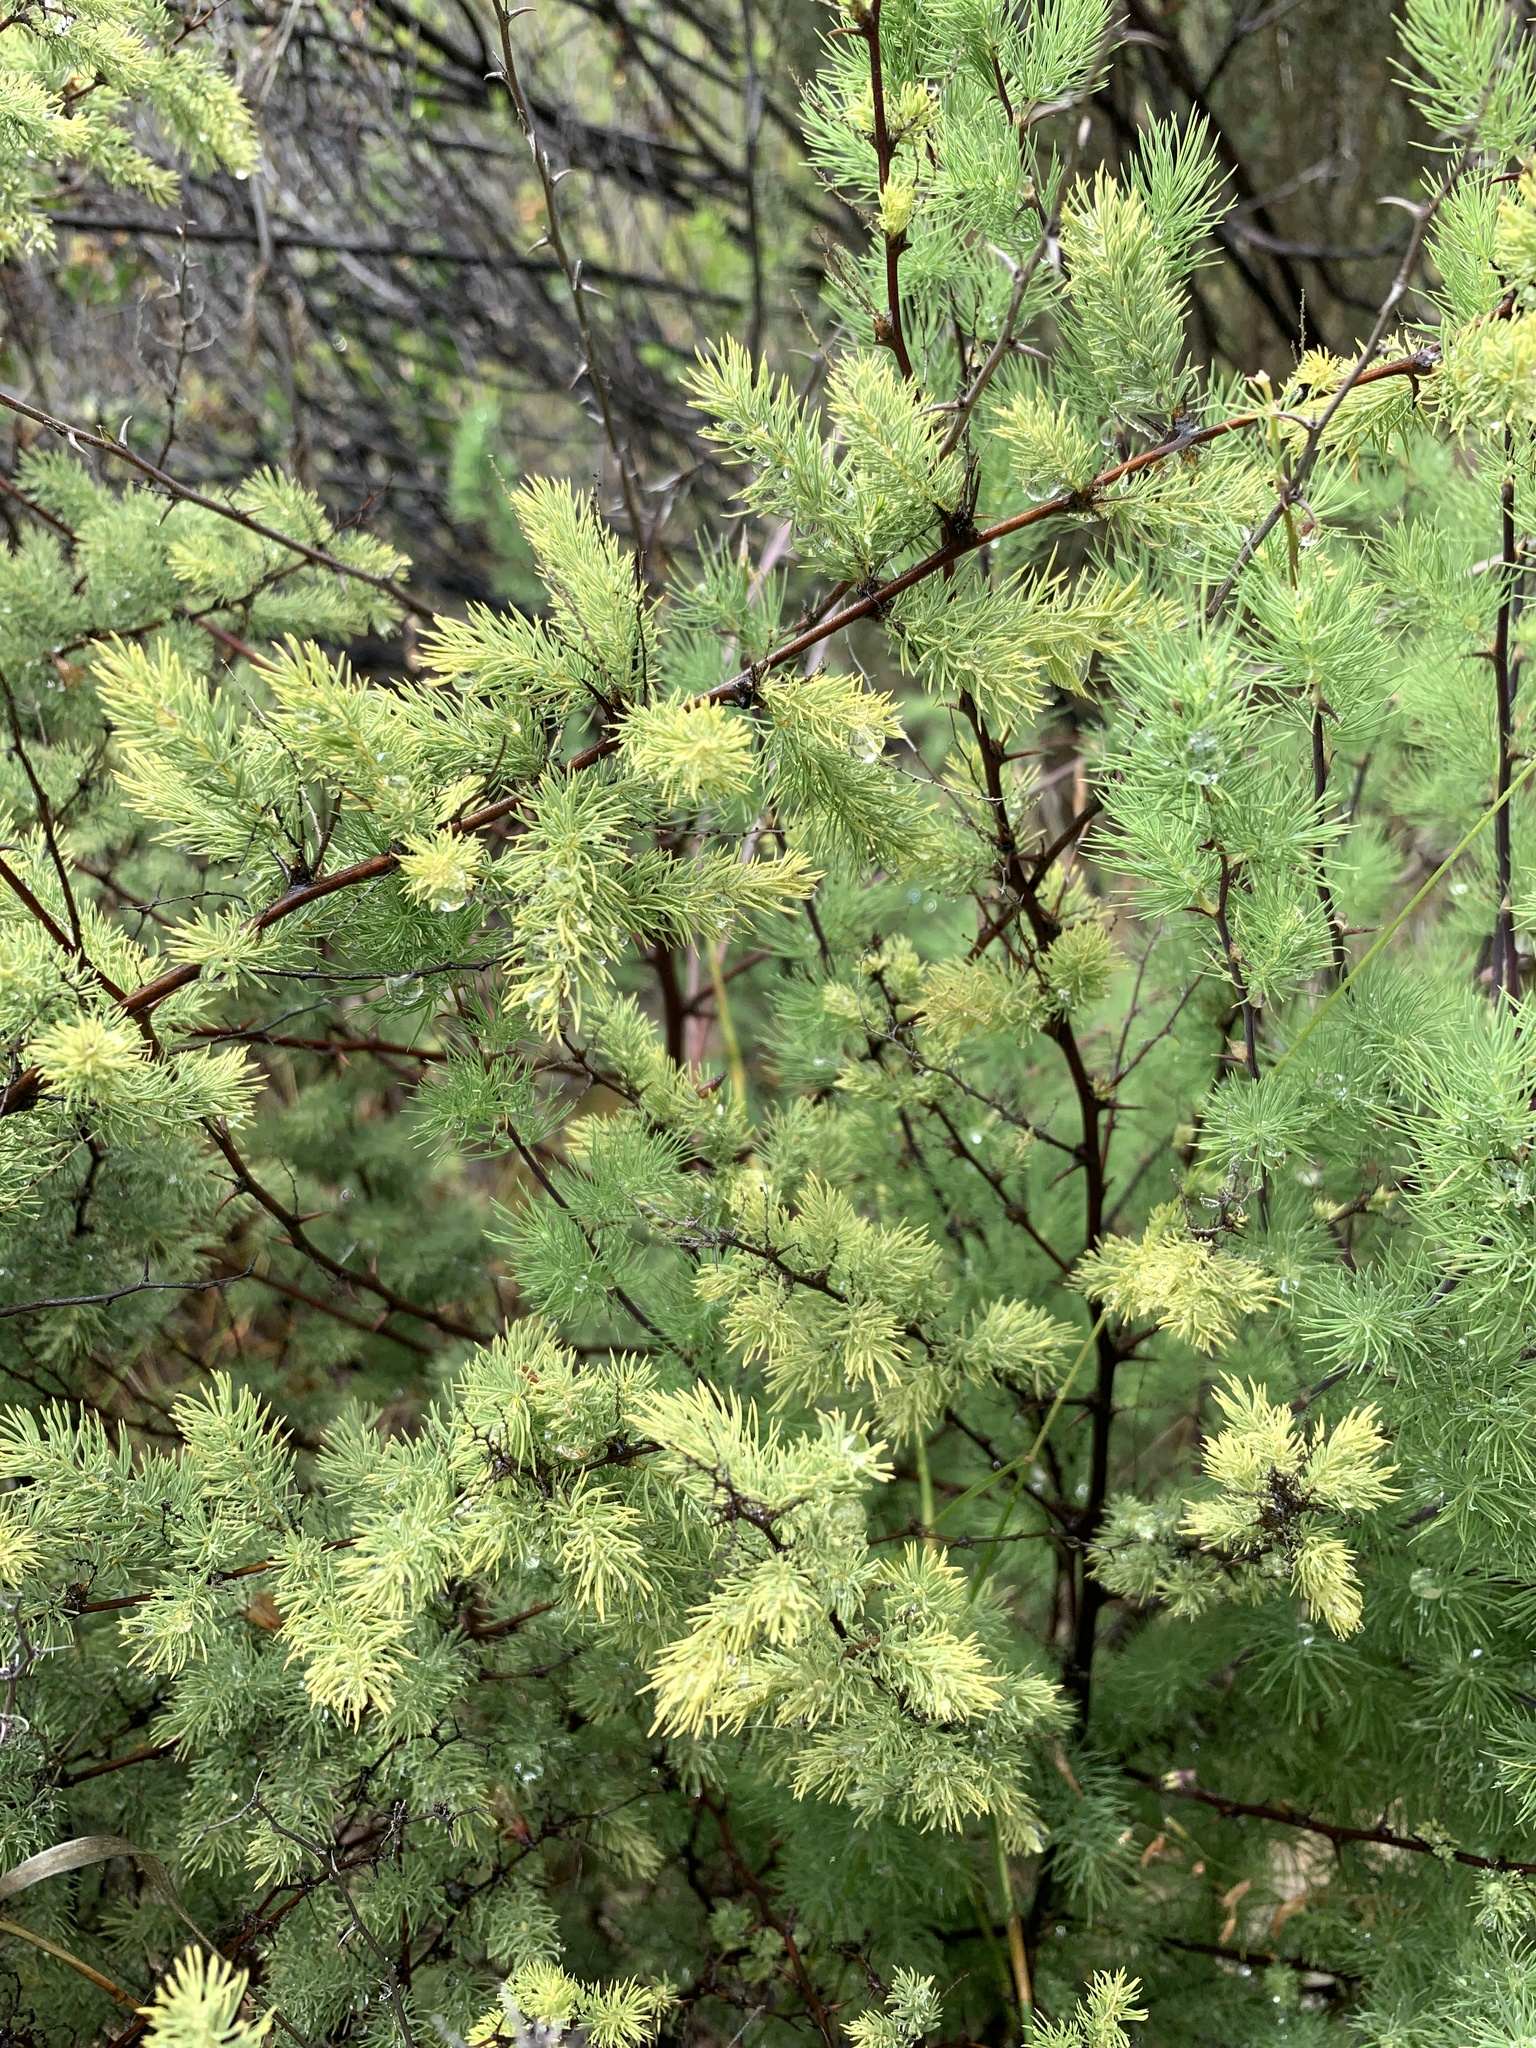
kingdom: Plantae
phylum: Tracheophyta
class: Liliopsida
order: Asparagales
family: Asparagaceae
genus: Asparagus
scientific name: Asparagus rubicundus
